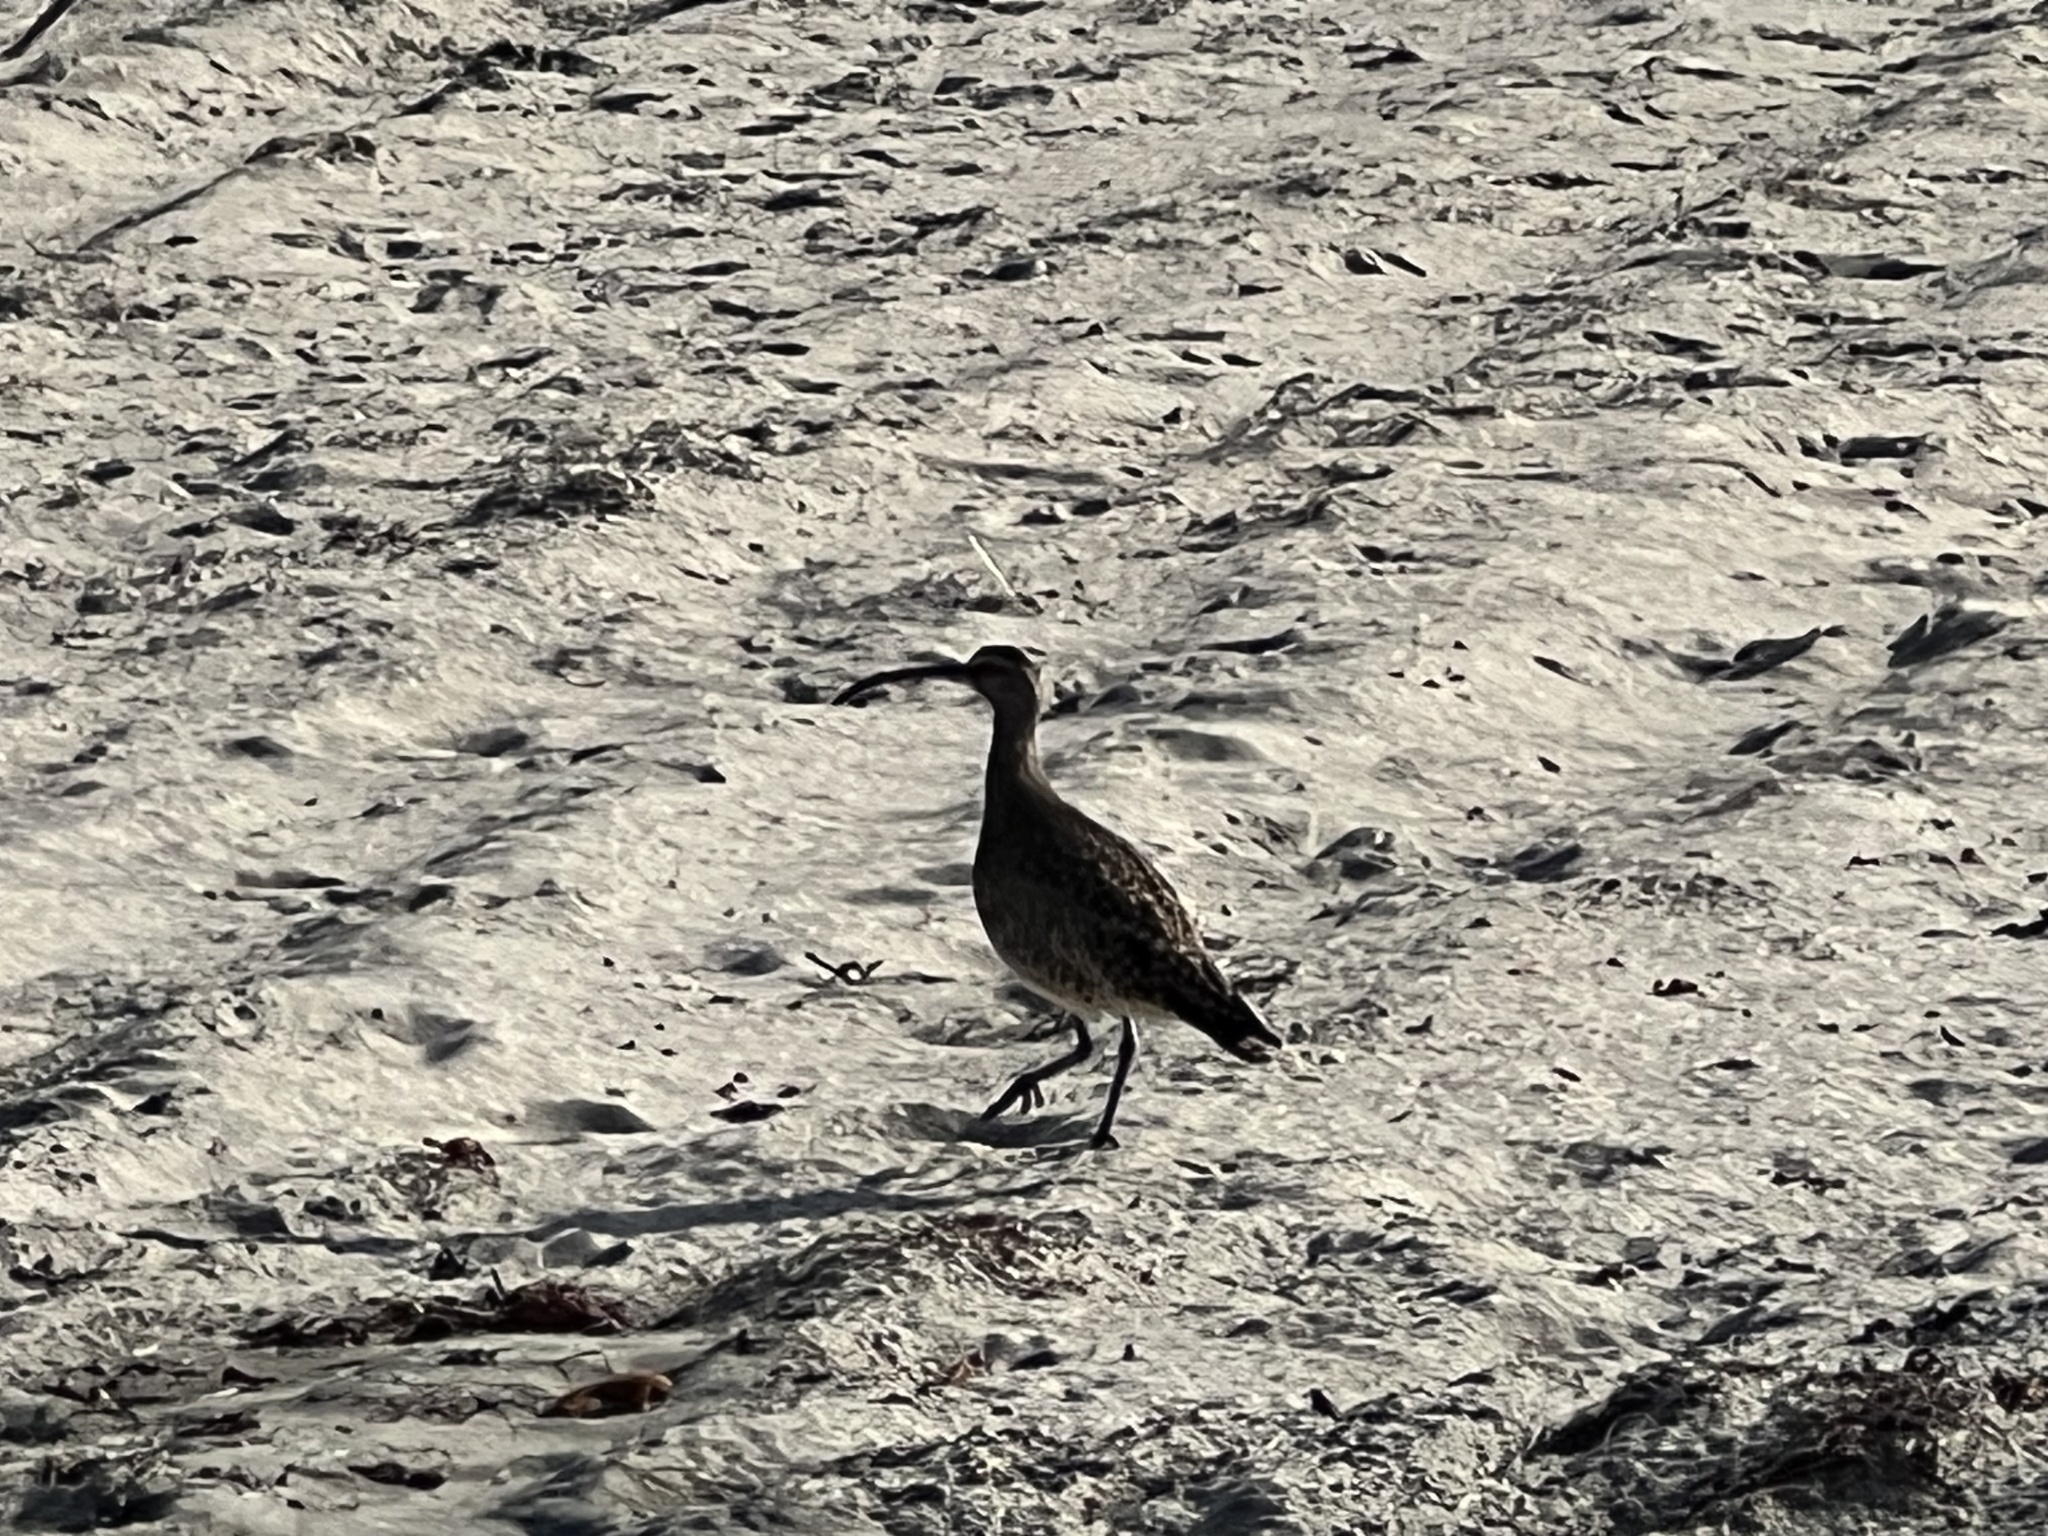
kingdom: Animalia
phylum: Chordata
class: Aves
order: Charadriiformes
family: Scolopacidae
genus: Numenius
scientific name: Numenius phaeopus
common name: Whimbrel
